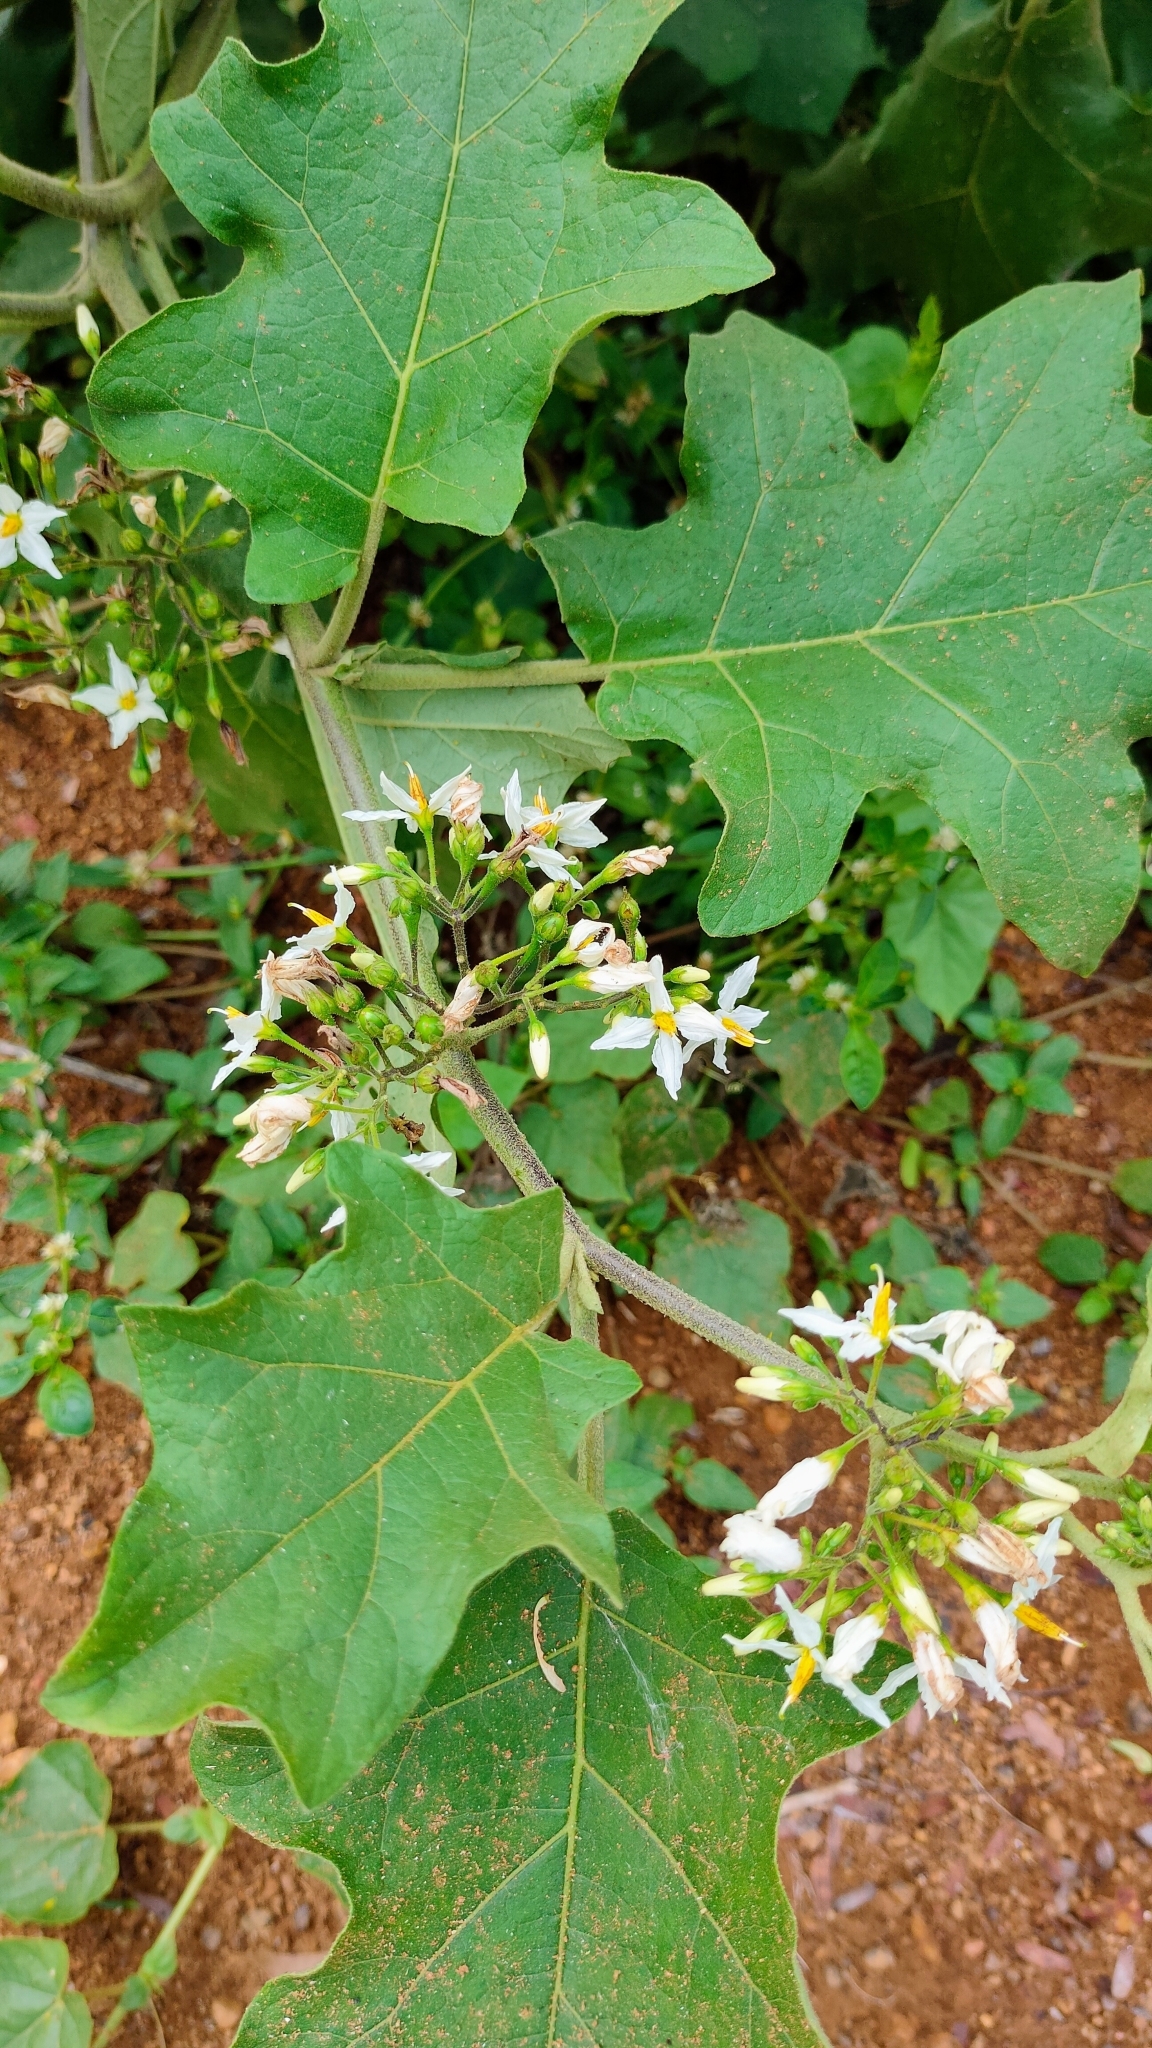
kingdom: Plantae
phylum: Tracheophyta
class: Magnoliopsida
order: Solanales
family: Solanaceae
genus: Solanum
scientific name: Solanum torvum
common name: Turkey berry
